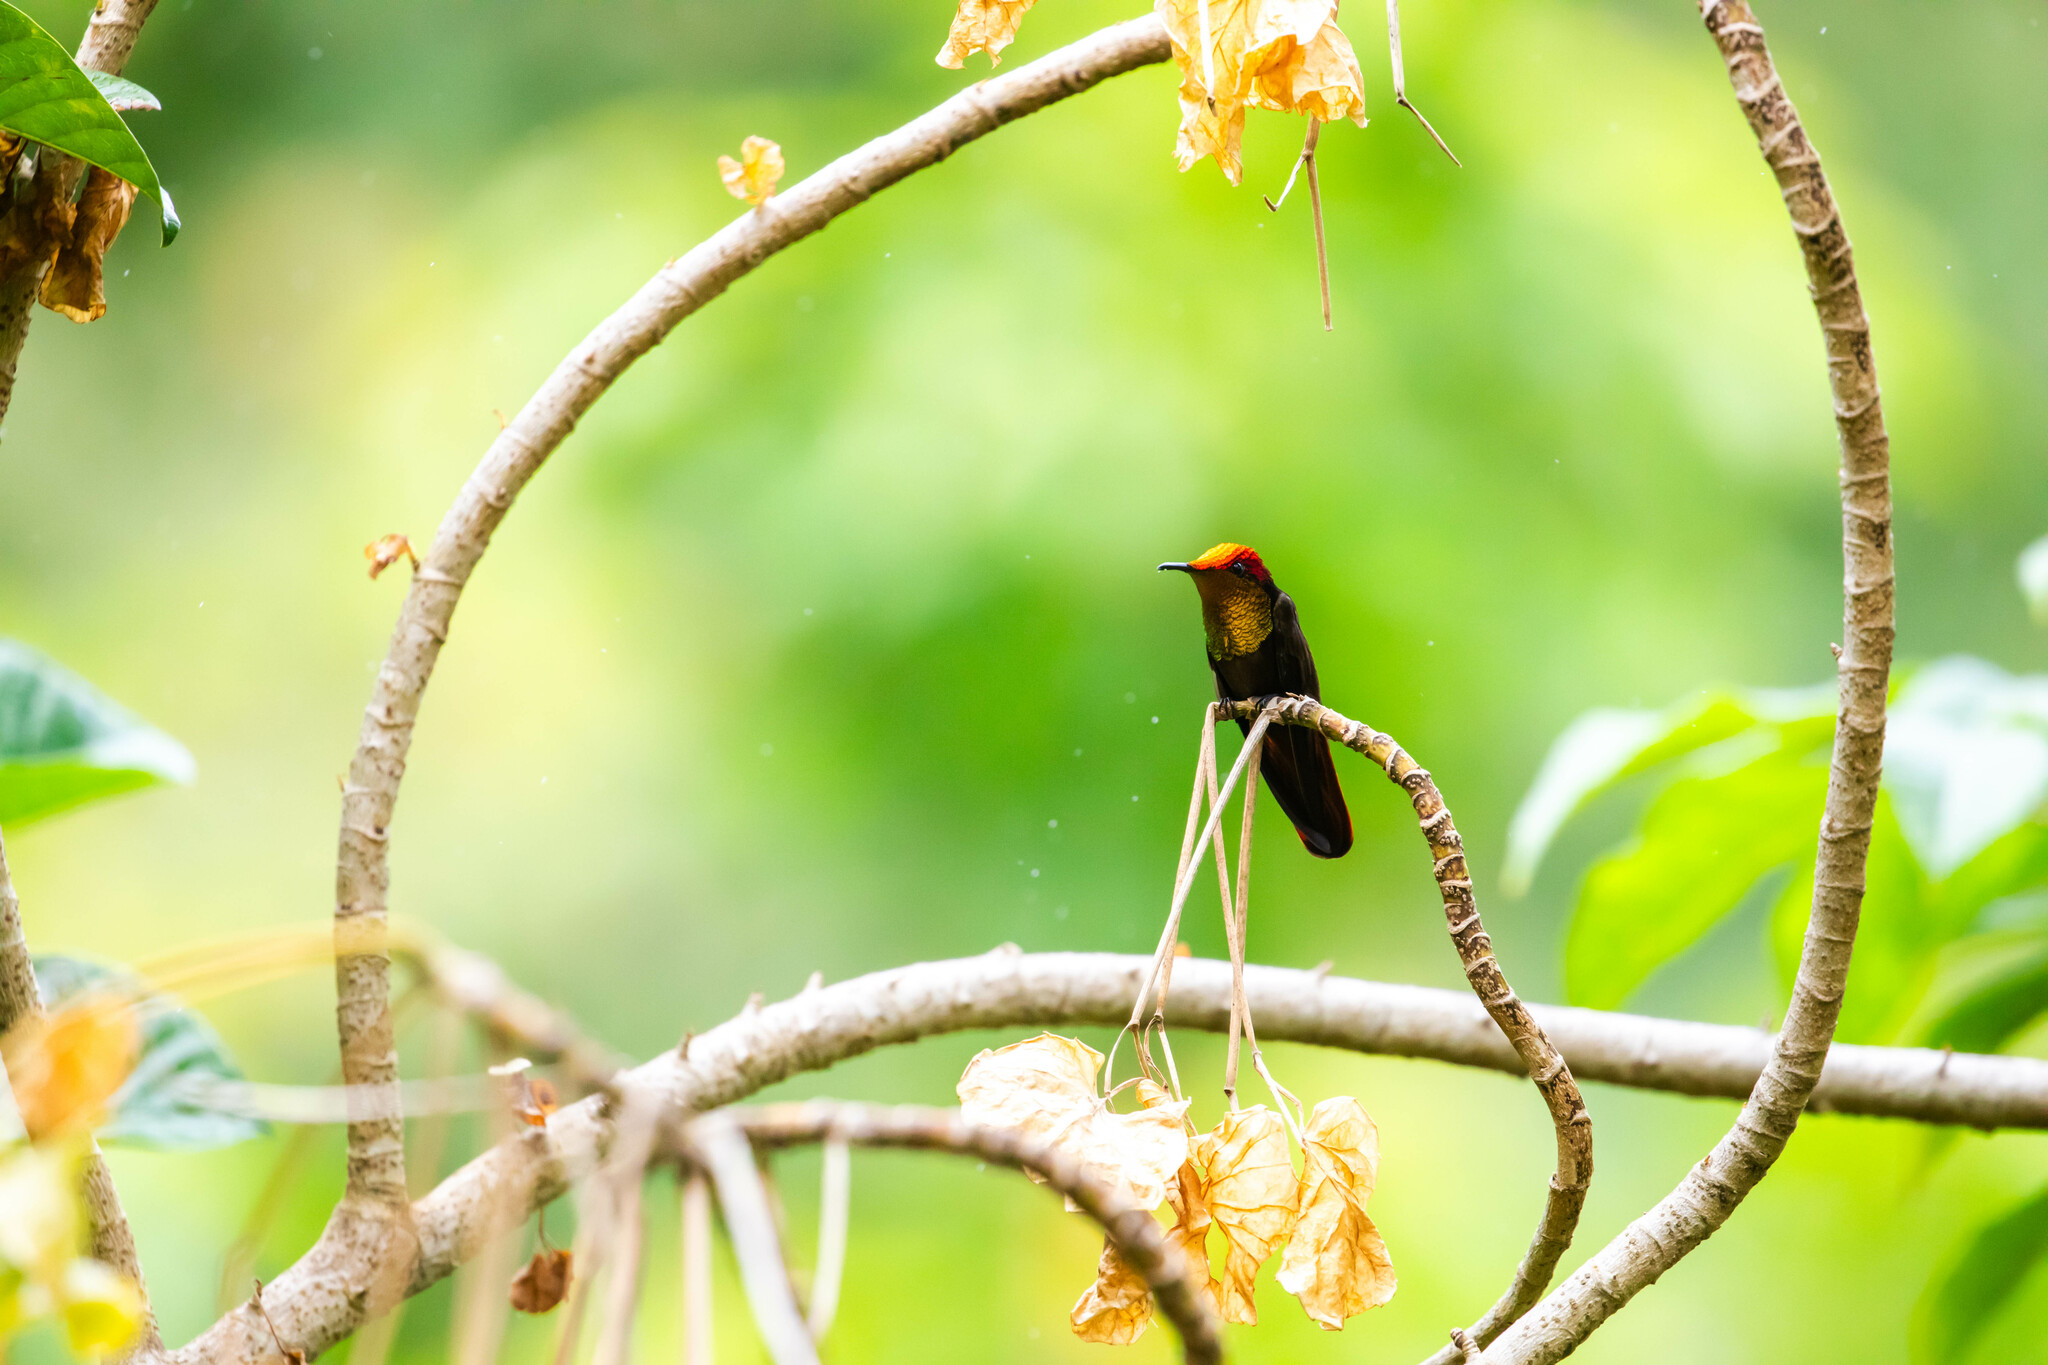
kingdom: Animalia
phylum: Chordata
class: Aves
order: Apodiformes
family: Trochilidae
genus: Chrysolampis
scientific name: Chrysolampis mosquitus
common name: Ruby-topaz hummingbird
